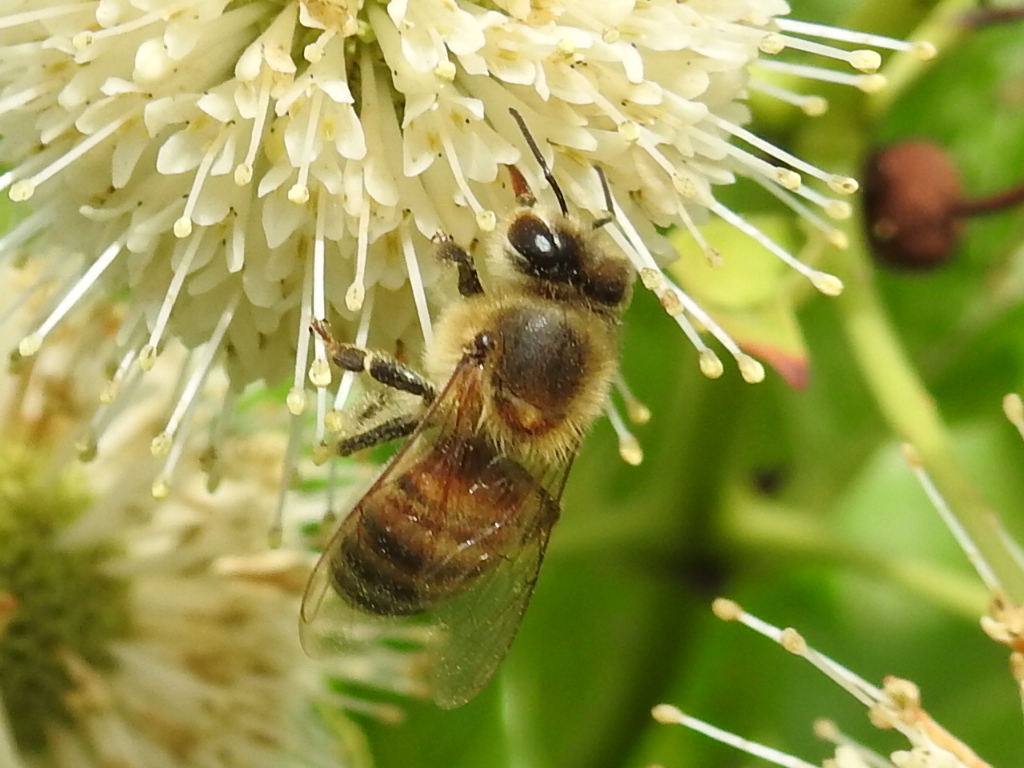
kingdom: Animalia
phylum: Arthropoda
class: Insecta
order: Hymenoptera
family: Apidae
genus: Apis
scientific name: Apis mellifera
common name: Honey bee
